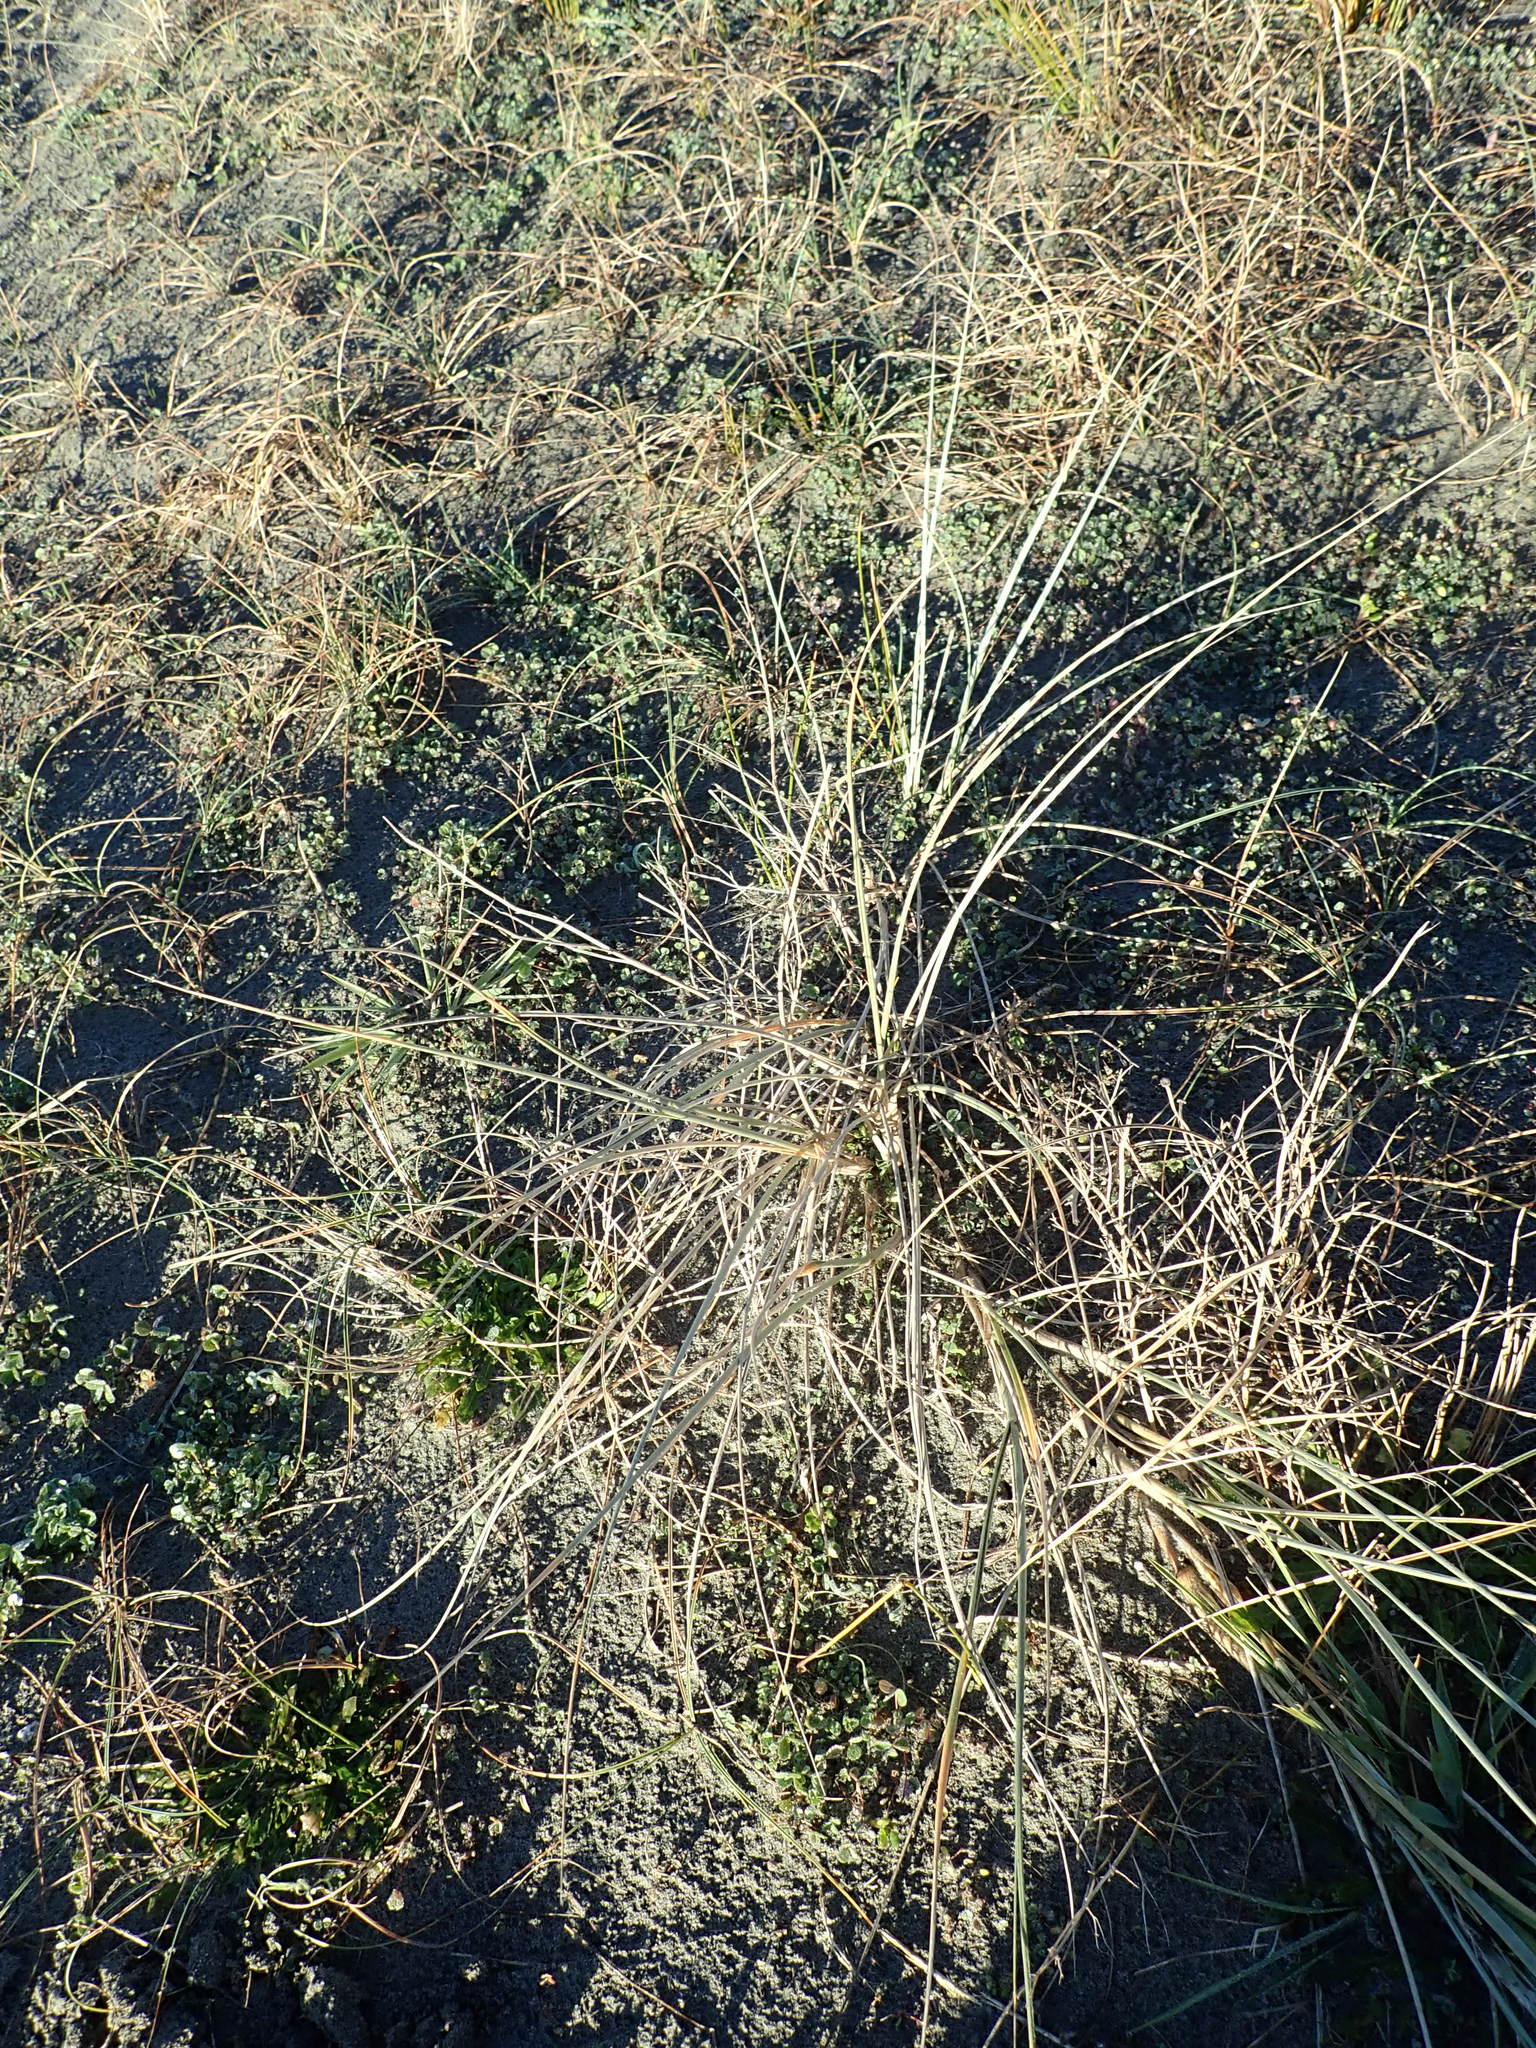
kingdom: Plantae
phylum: Tracheophyta
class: Liliopsida
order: Poales
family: Poaceae
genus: Spinifex
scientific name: Spinifex sericeus
